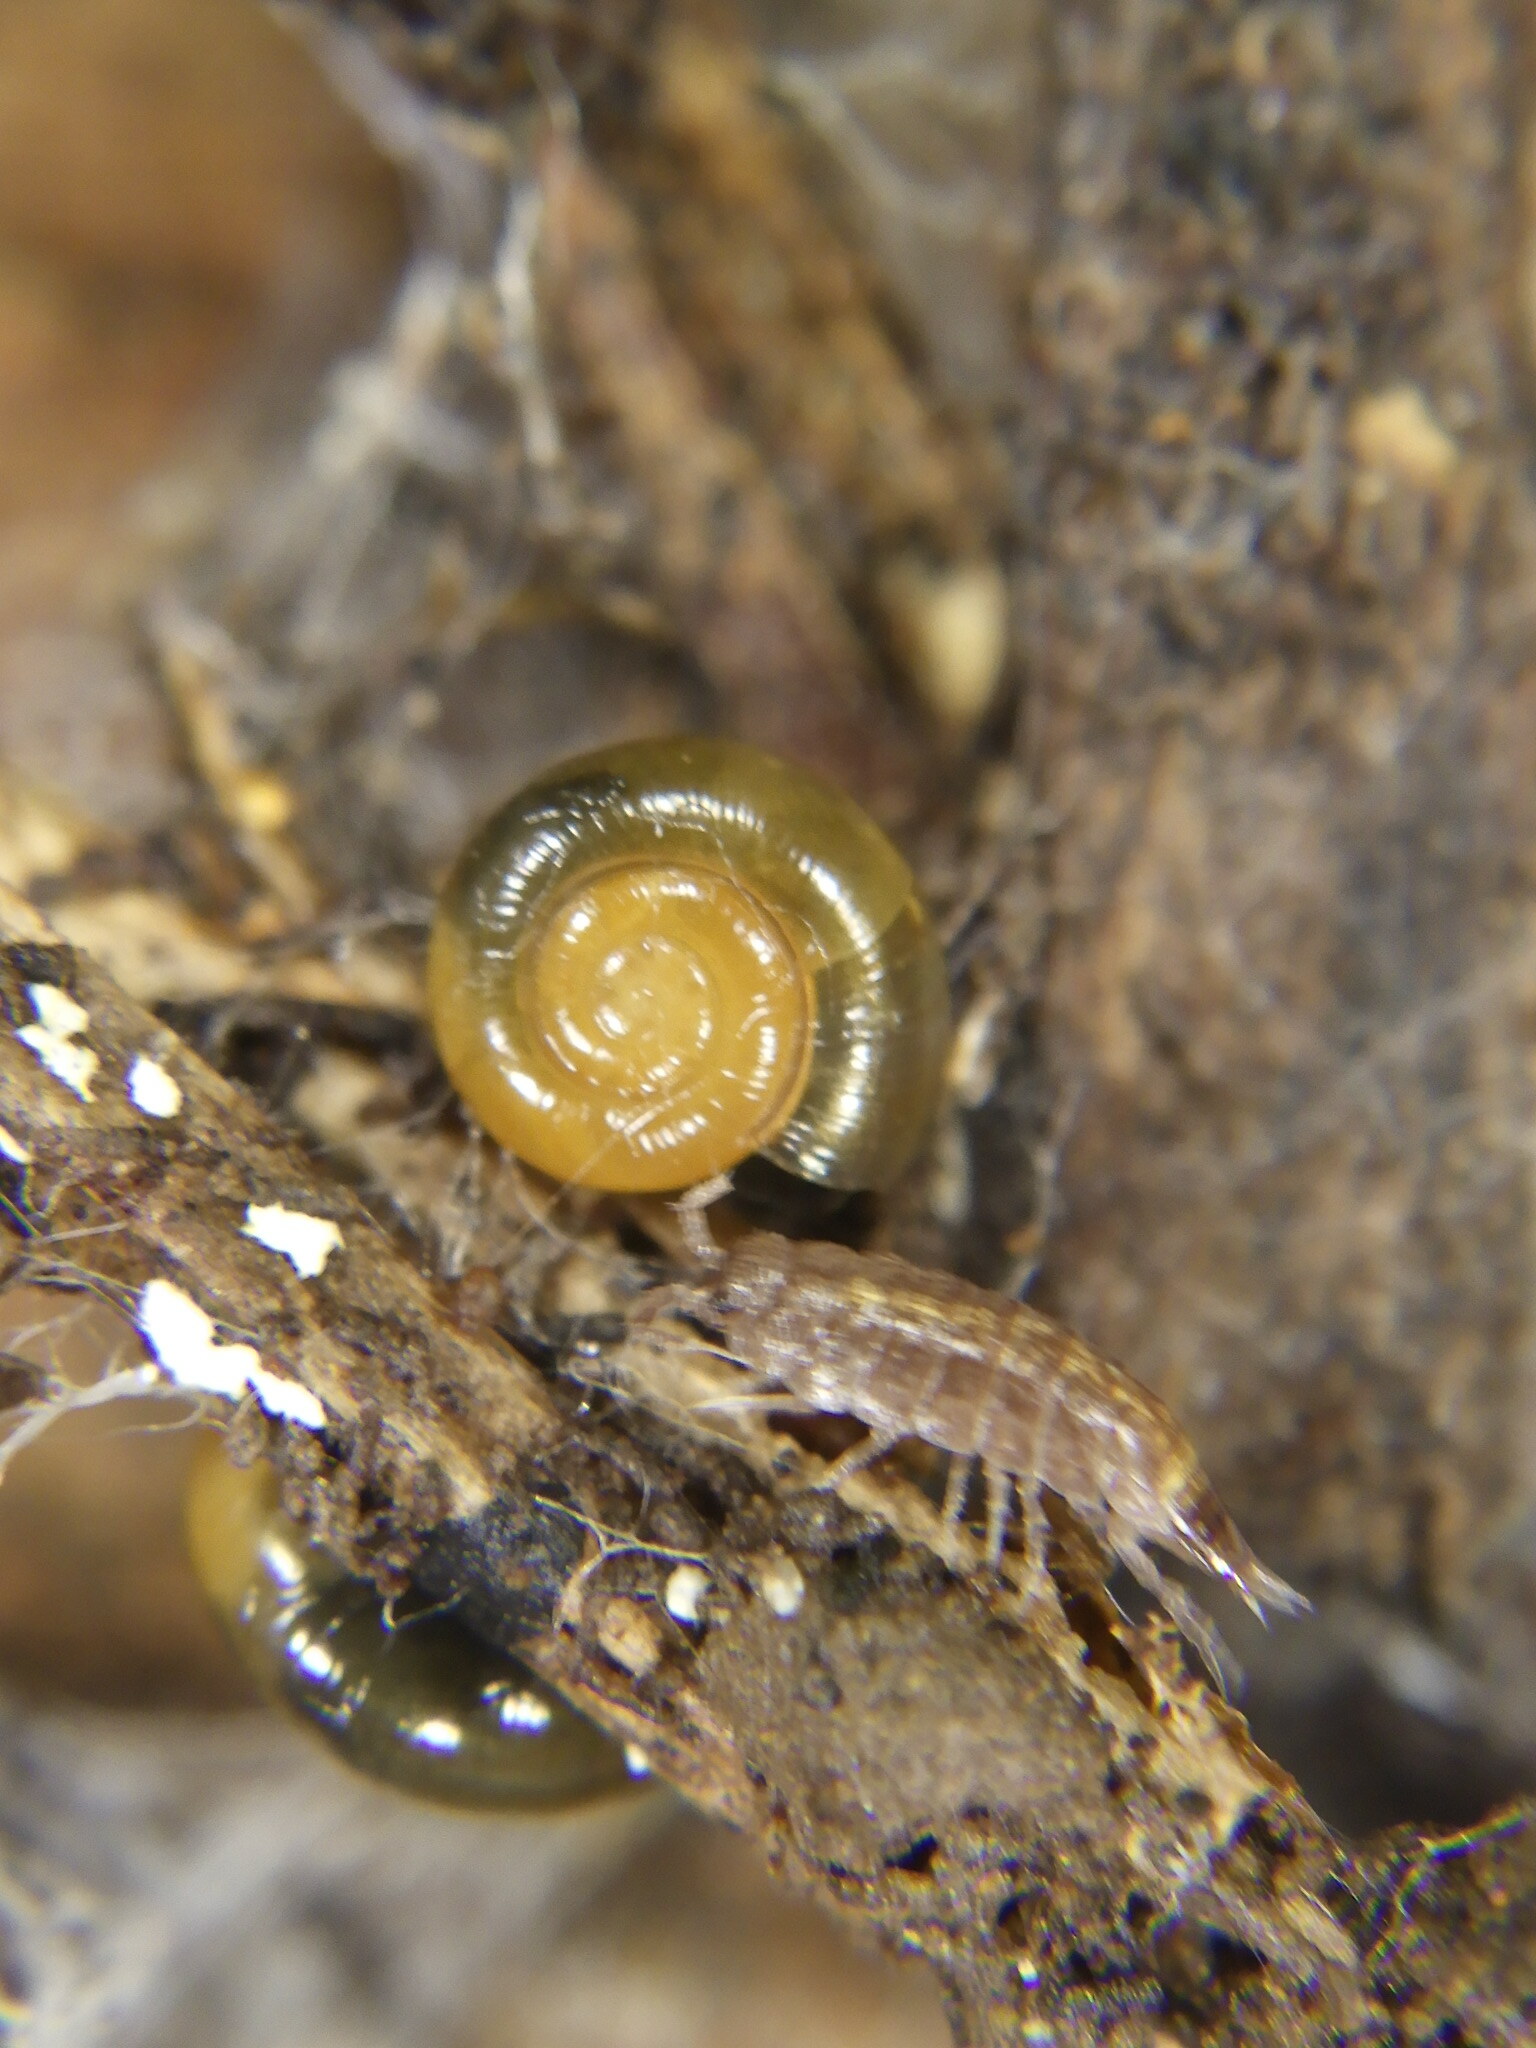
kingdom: Animalia
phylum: Arthropoda
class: Malacostraca
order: Isopoda
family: Trachelipodidae
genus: Trachelipus
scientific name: Trachelipus rathkii
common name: Isopod
